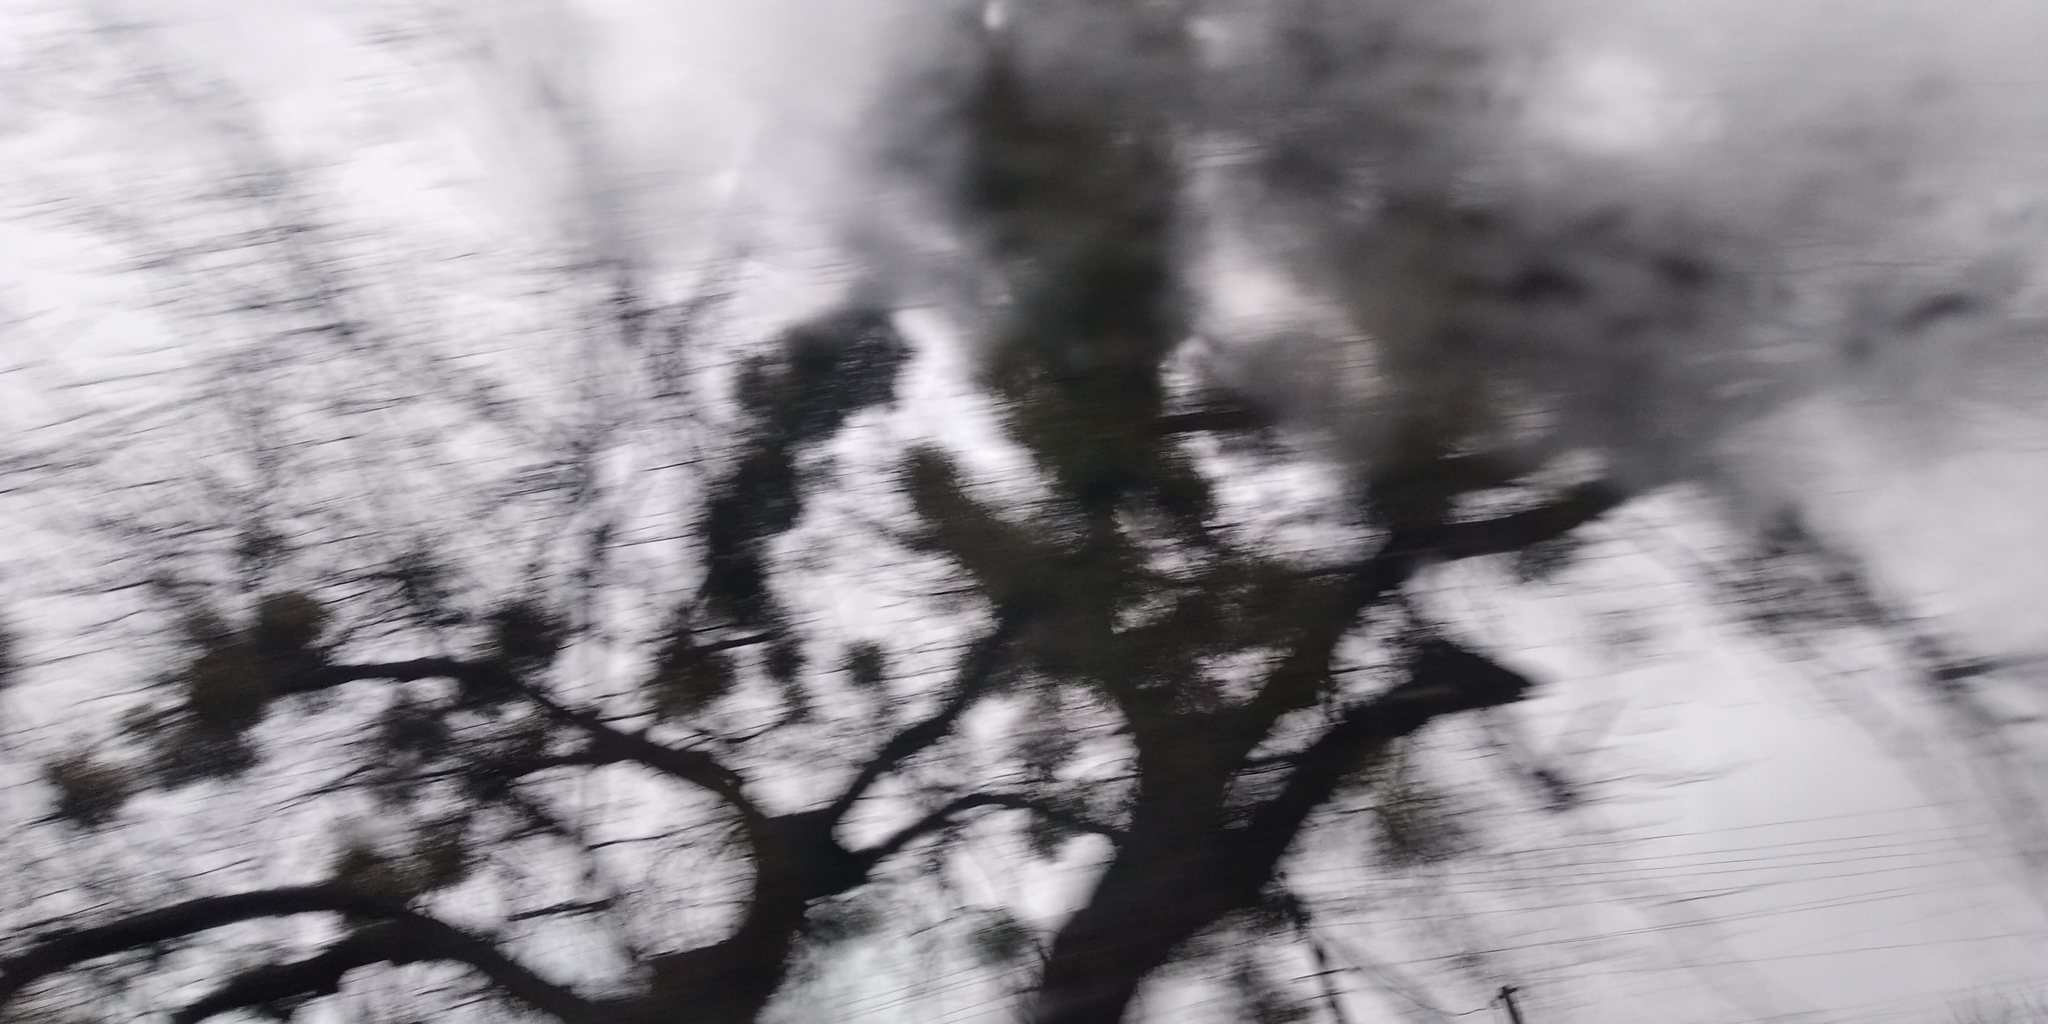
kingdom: Plantae
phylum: Tracheophyta
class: Magnoliopsida
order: Santalales
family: Viscaceae
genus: Viscum
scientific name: Viscum album
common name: Mistletoe
